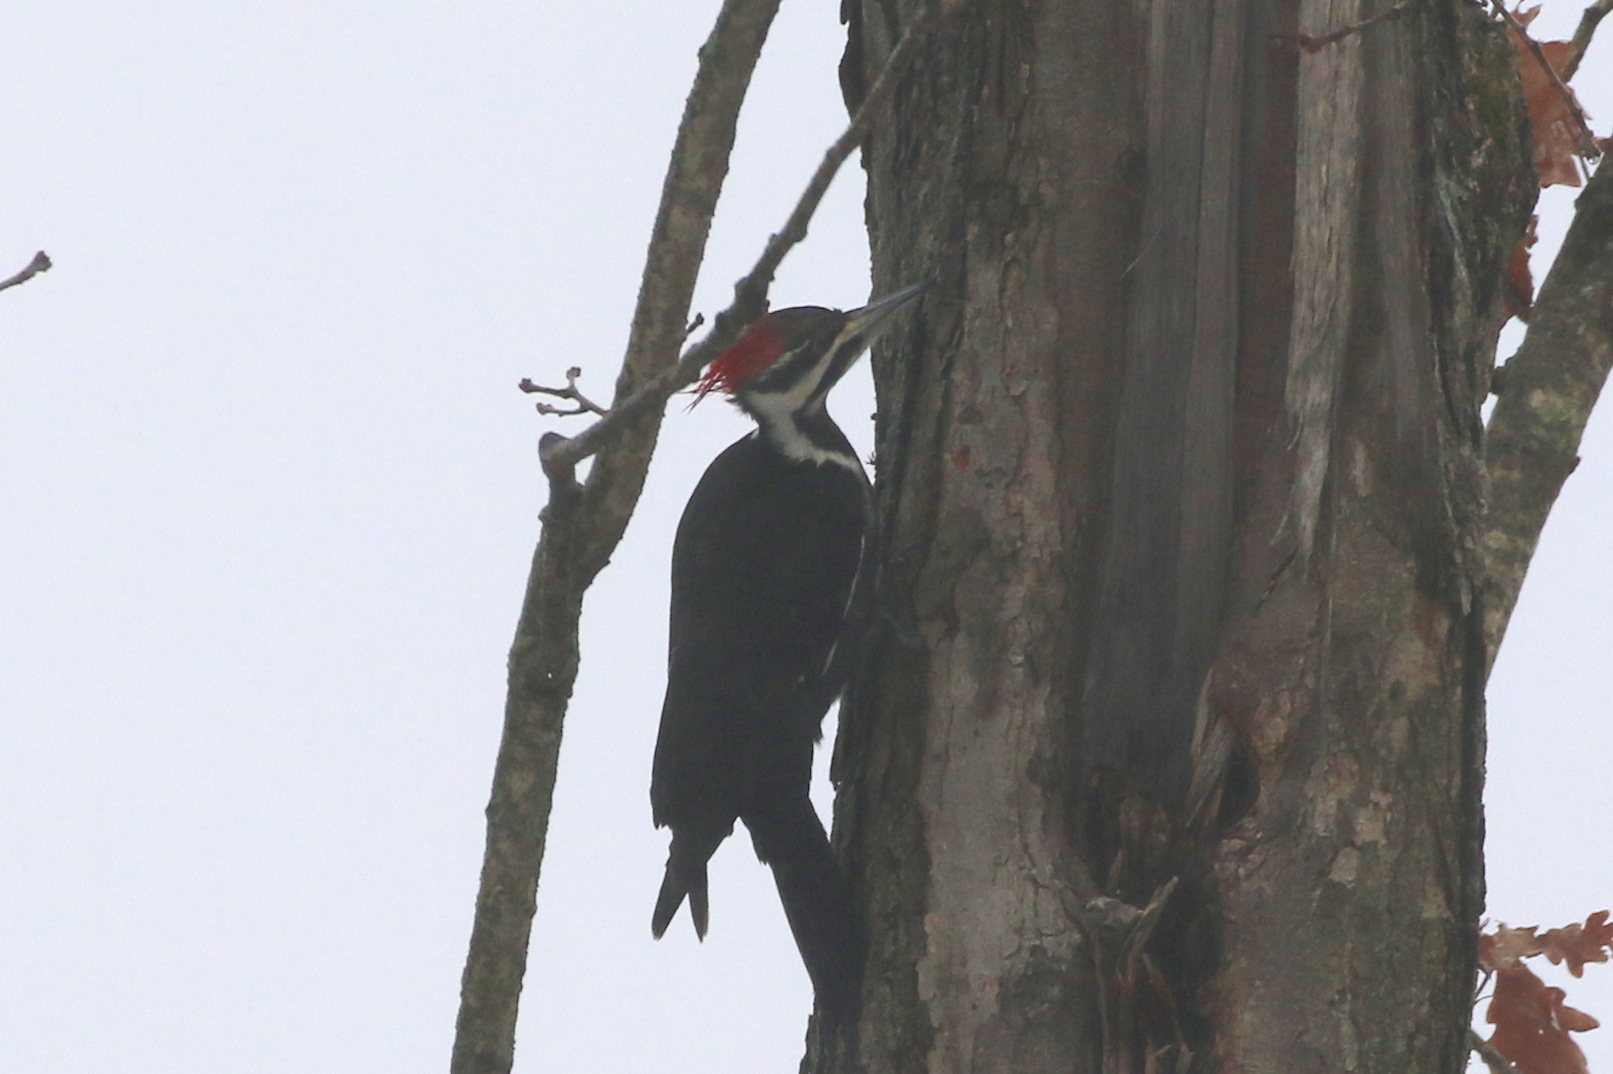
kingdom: Animalia
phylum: Chordata
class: Aves
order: Piciformes
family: Picidae
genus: Dryocopus
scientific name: Dryocopus pileatus
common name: Pileated woodpecker
